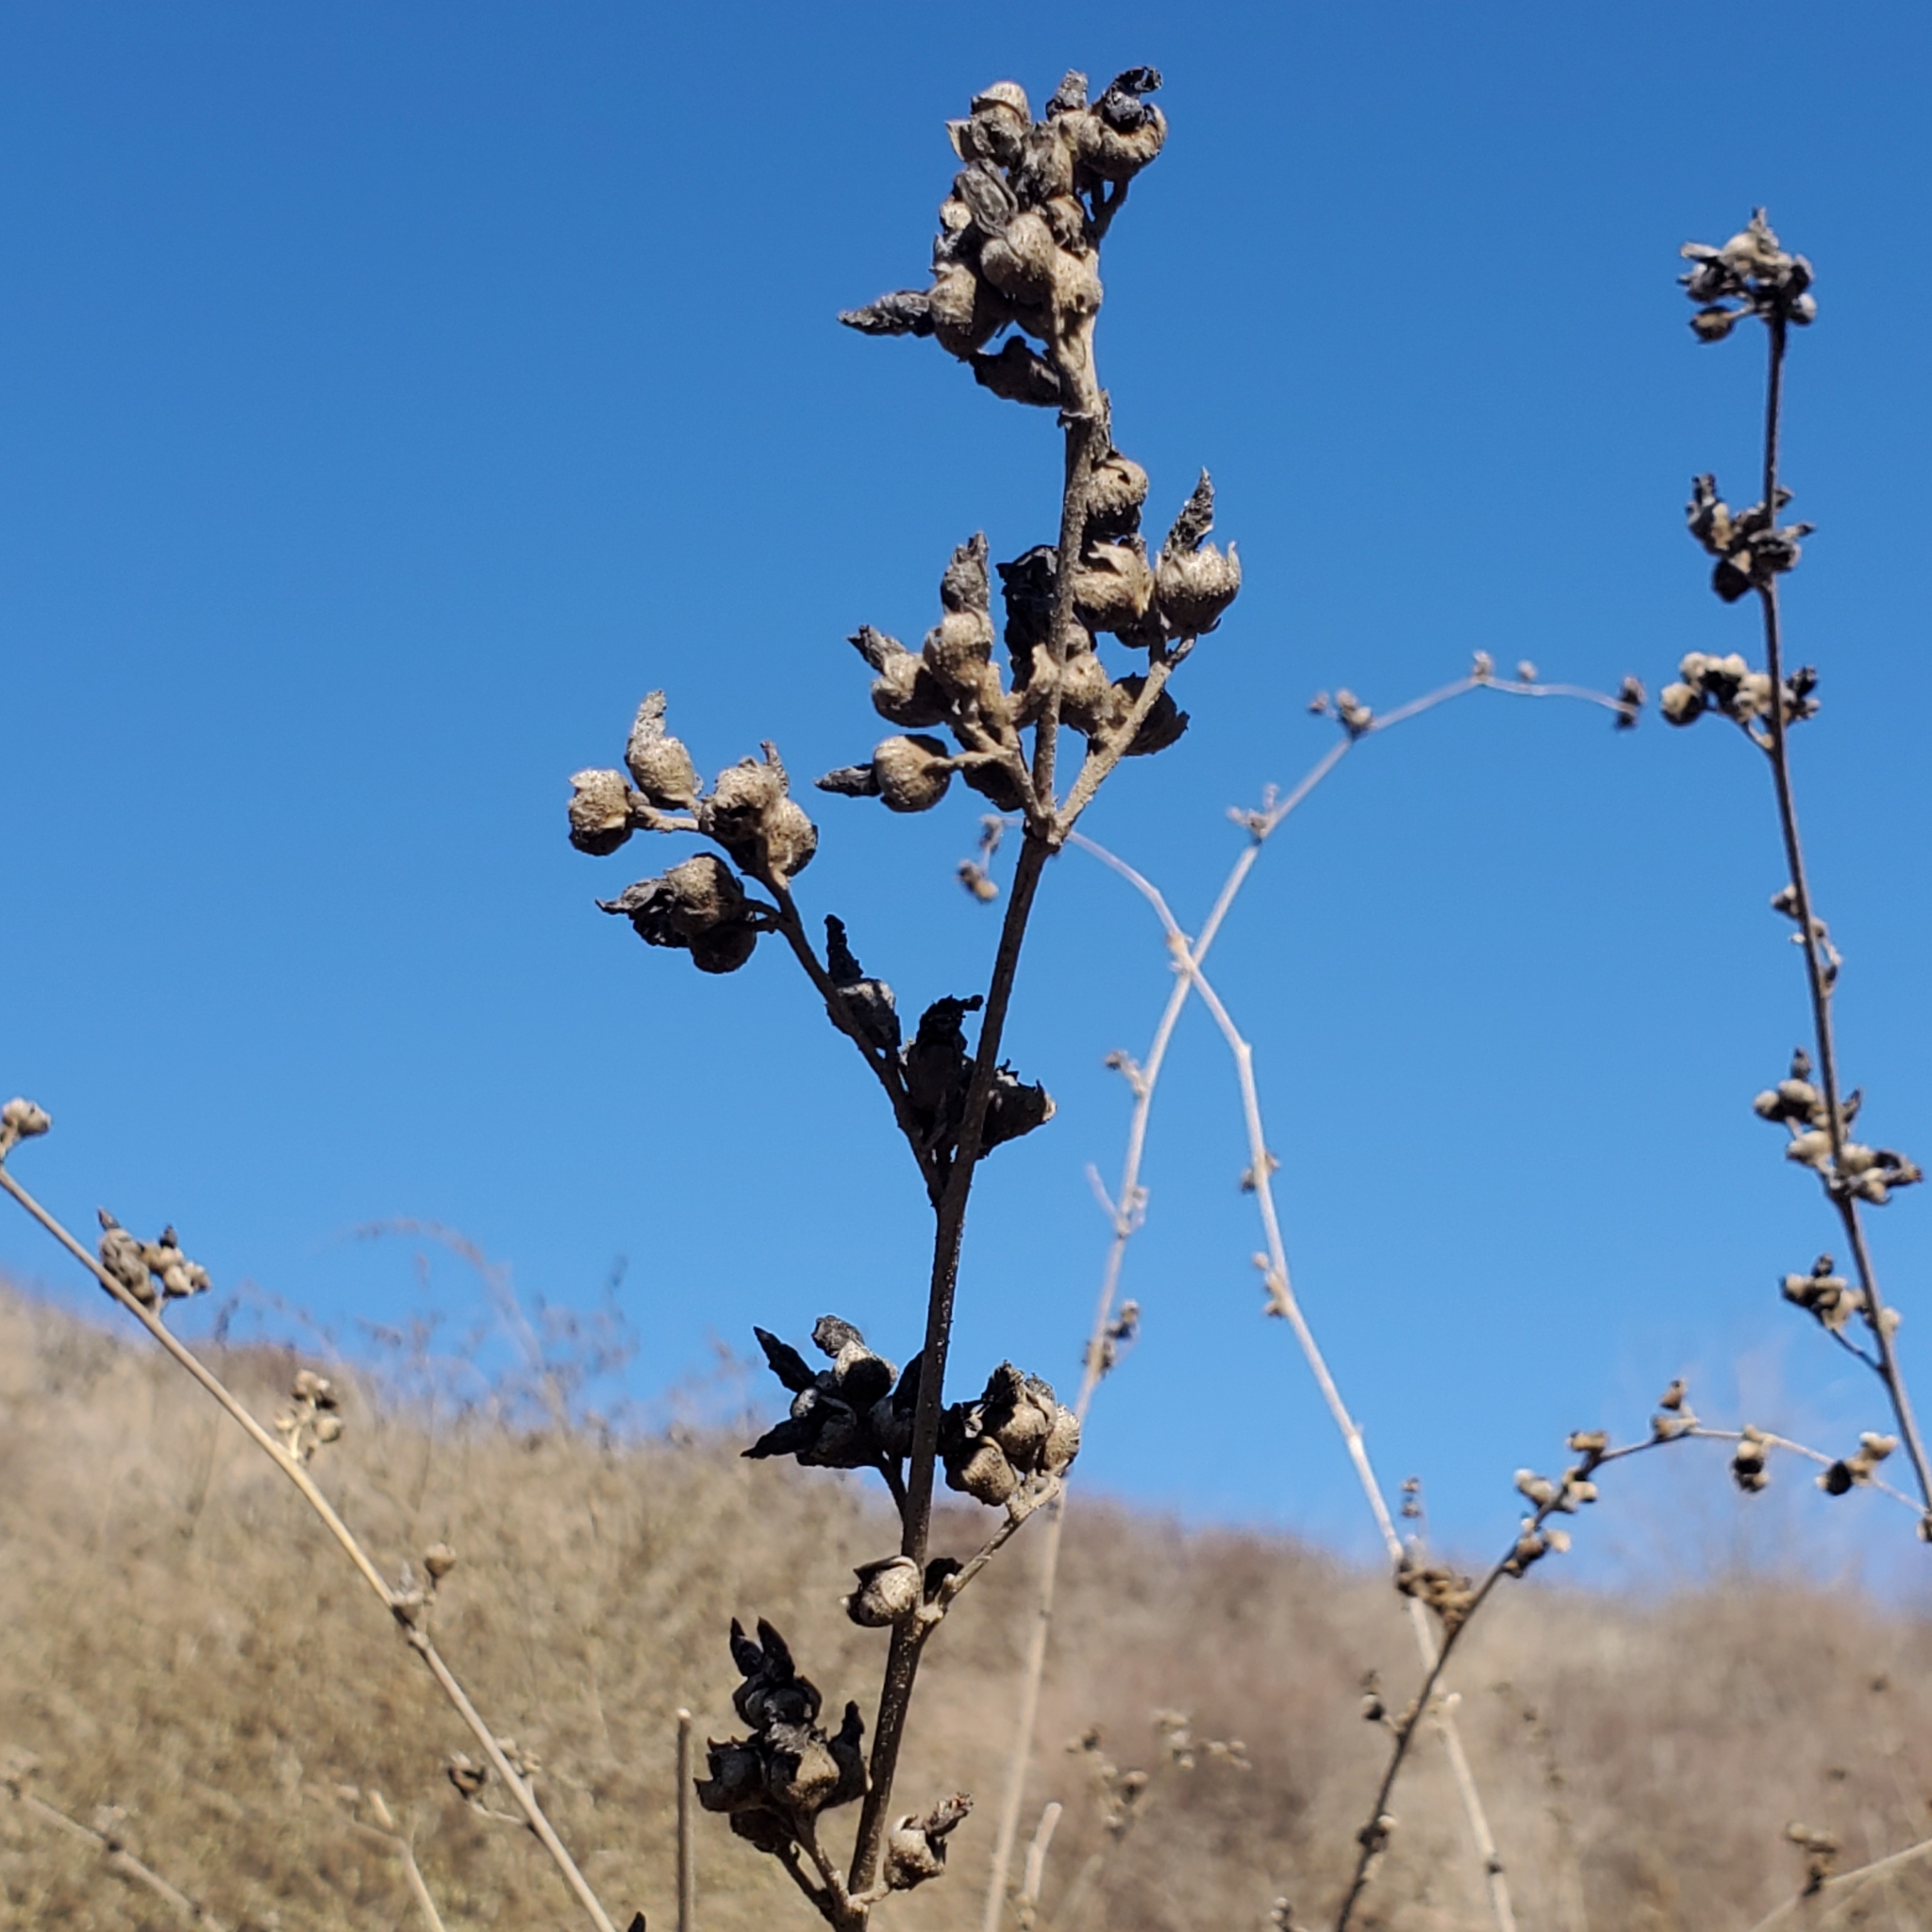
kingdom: Plantae
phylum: Tracheophyta
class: Magnoliopsida
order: Malvales
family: Malvaceae
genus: Malacothamnus
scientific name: Malacothamnus fasciculatus
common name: Sant cruz island bush-mallow
